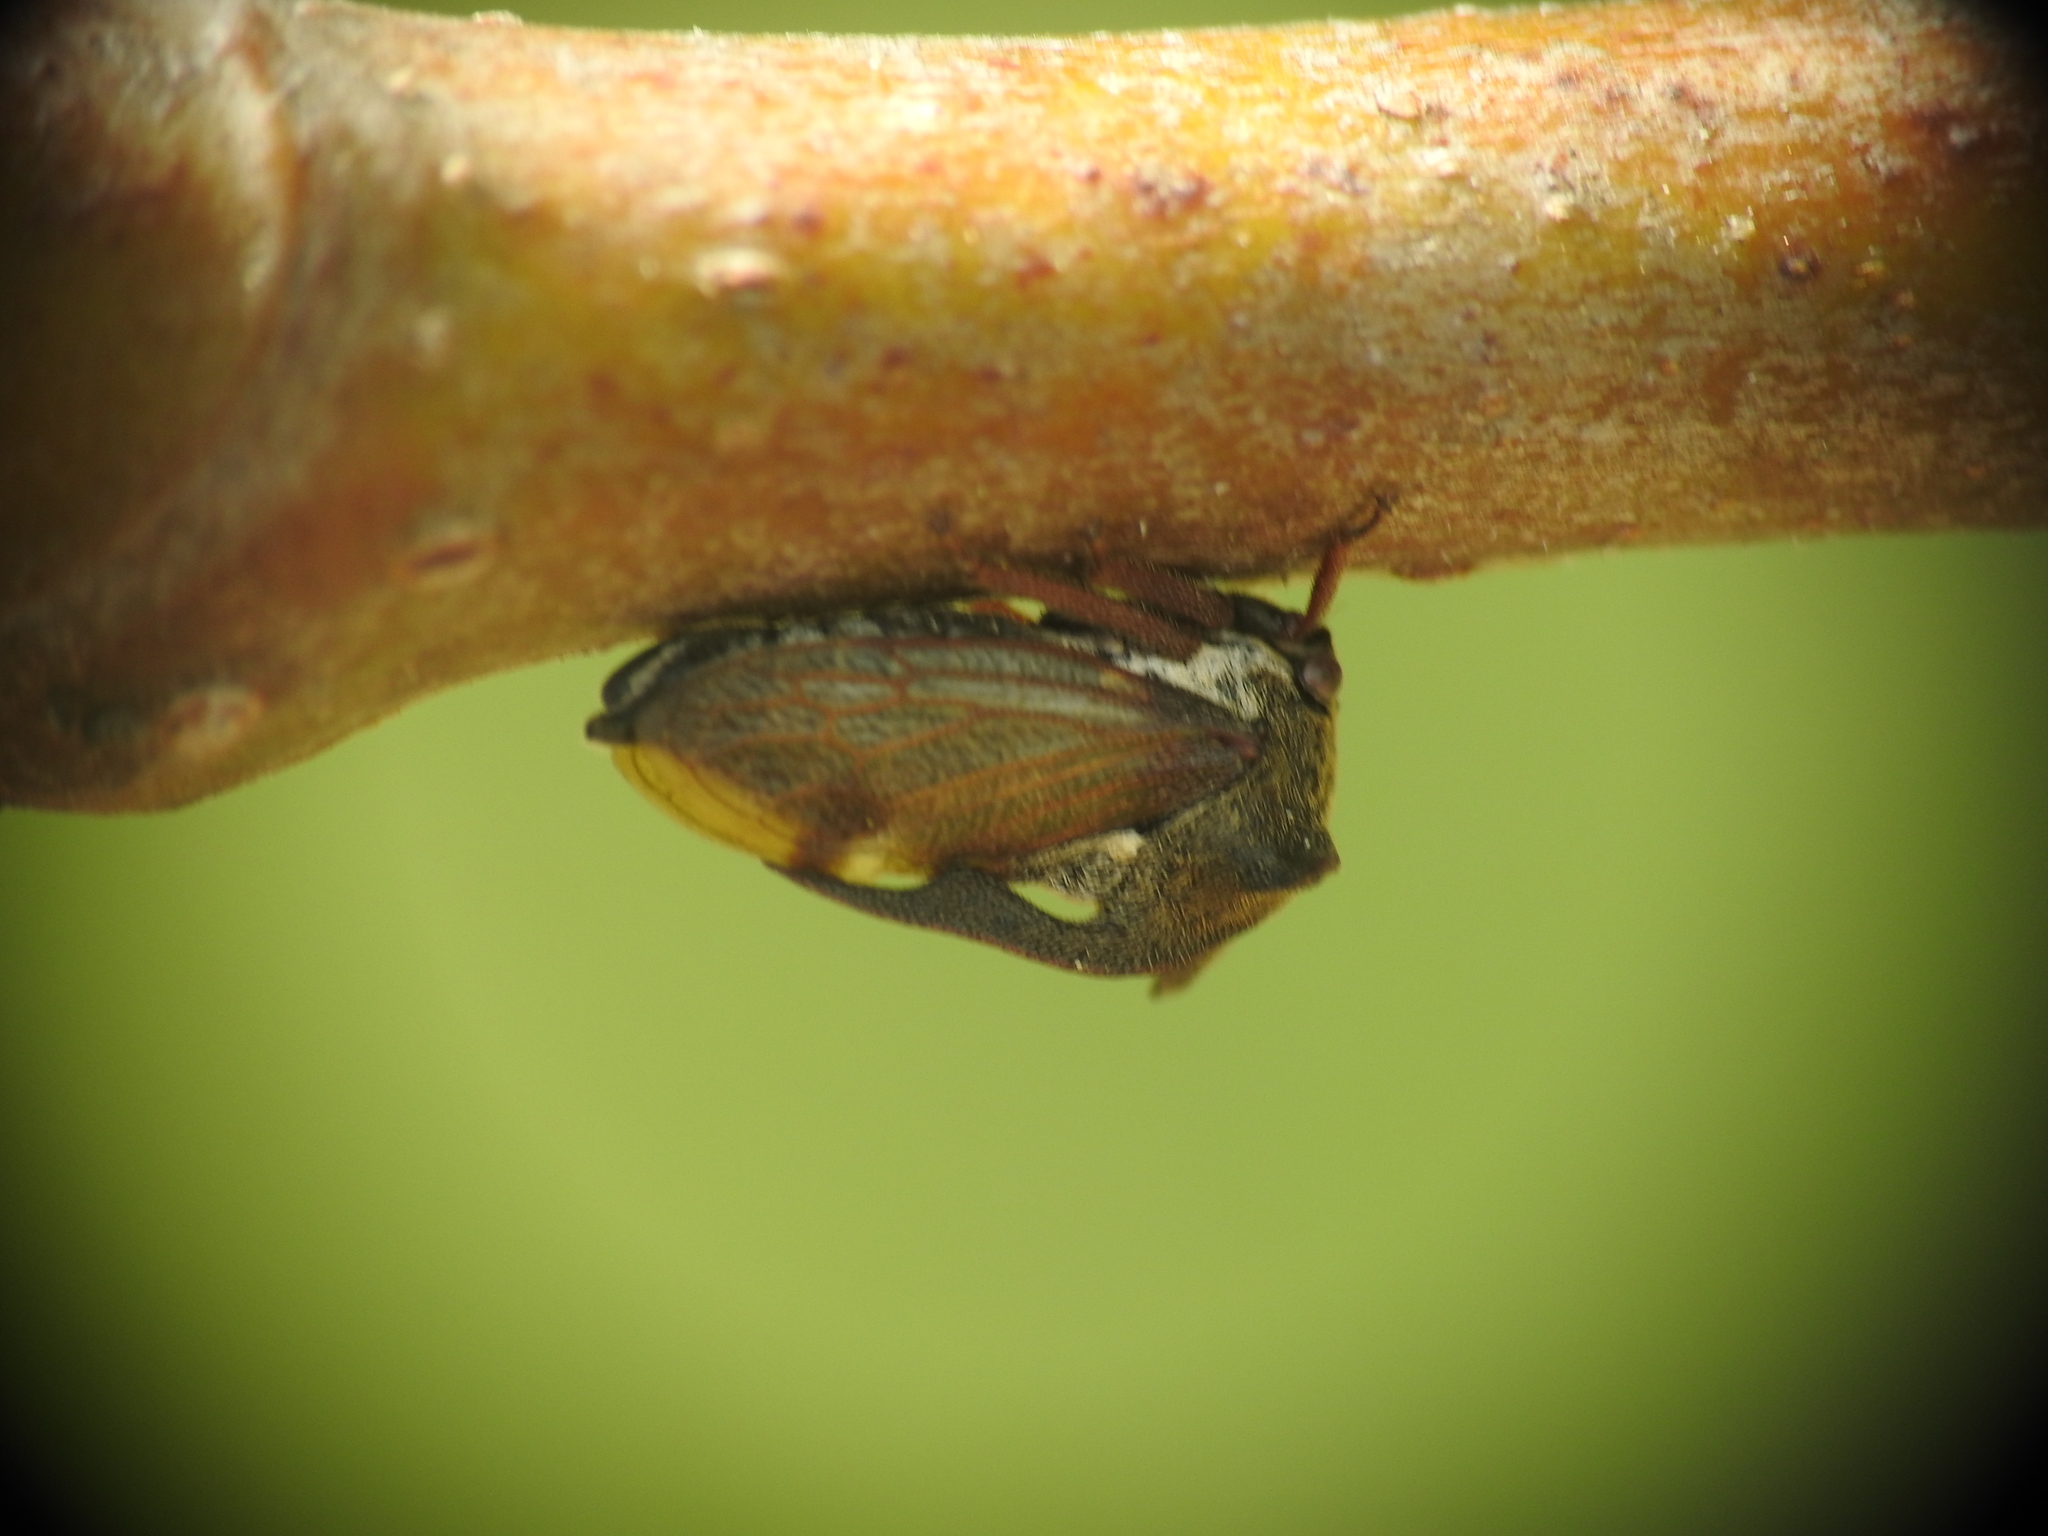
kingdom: Animalia
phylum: Arthropoda
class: Insecta
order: Hemiptera
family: Membracidae
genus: Centrotus
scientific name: Centrotus cornuta
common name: Treehopper
